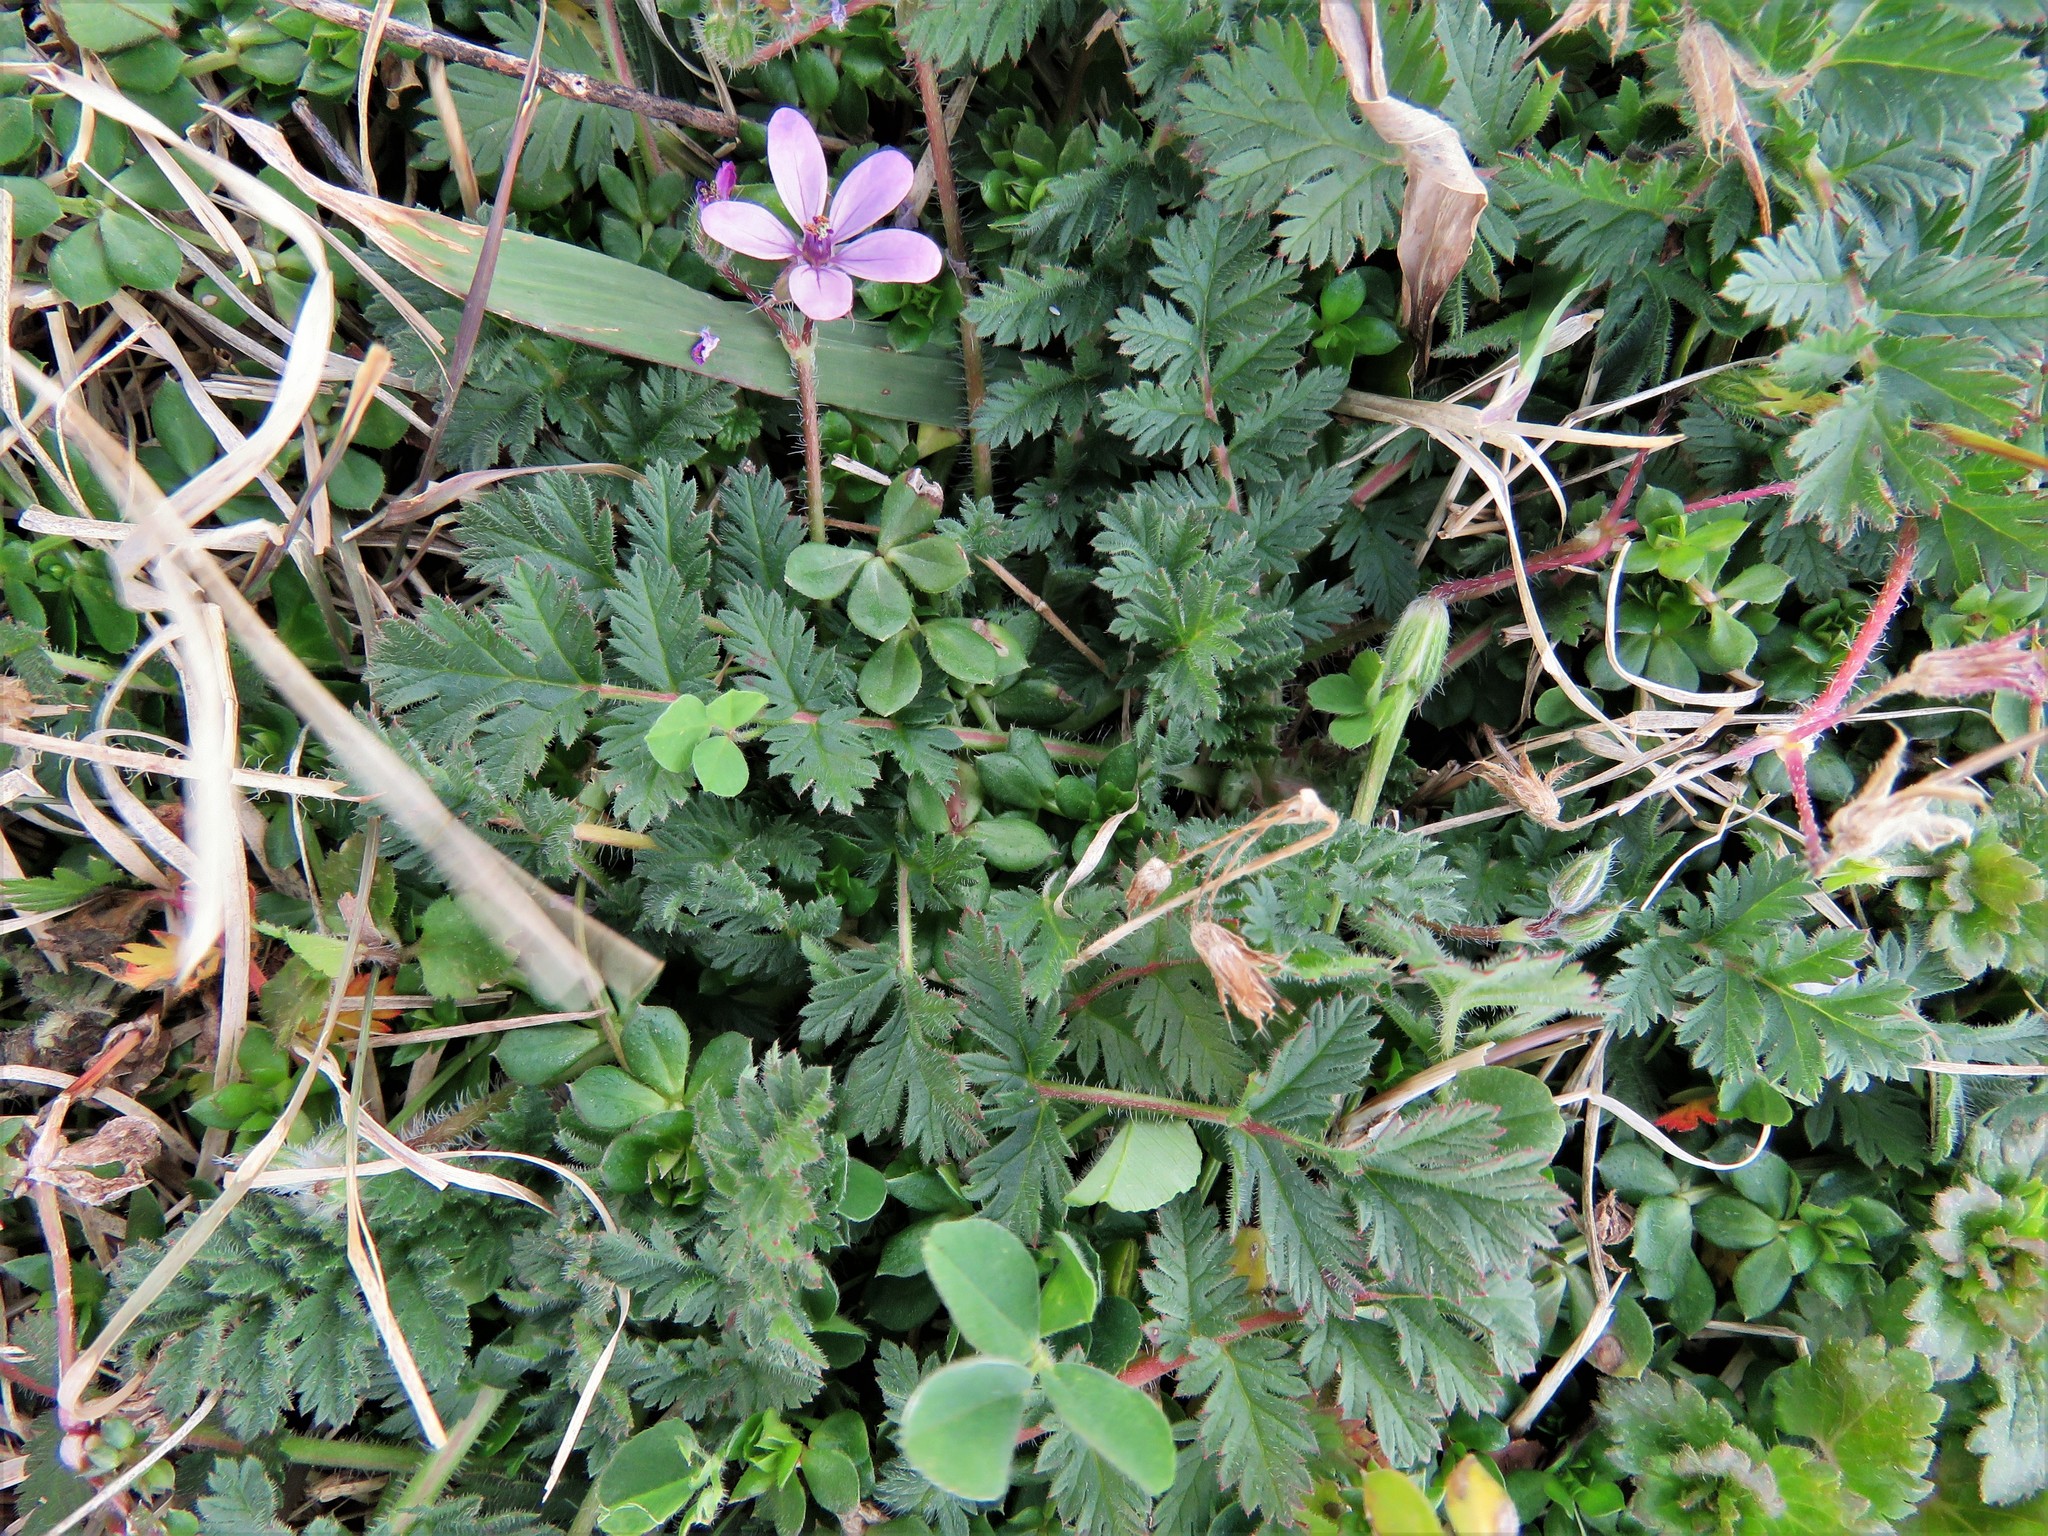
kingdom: Plantae
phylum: Tracheophyta
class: Magnoliopsida
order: Geraniales
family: Geraniaceae
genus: Erodium
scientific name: Erodium cicutarium
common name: Common stork's-bill
